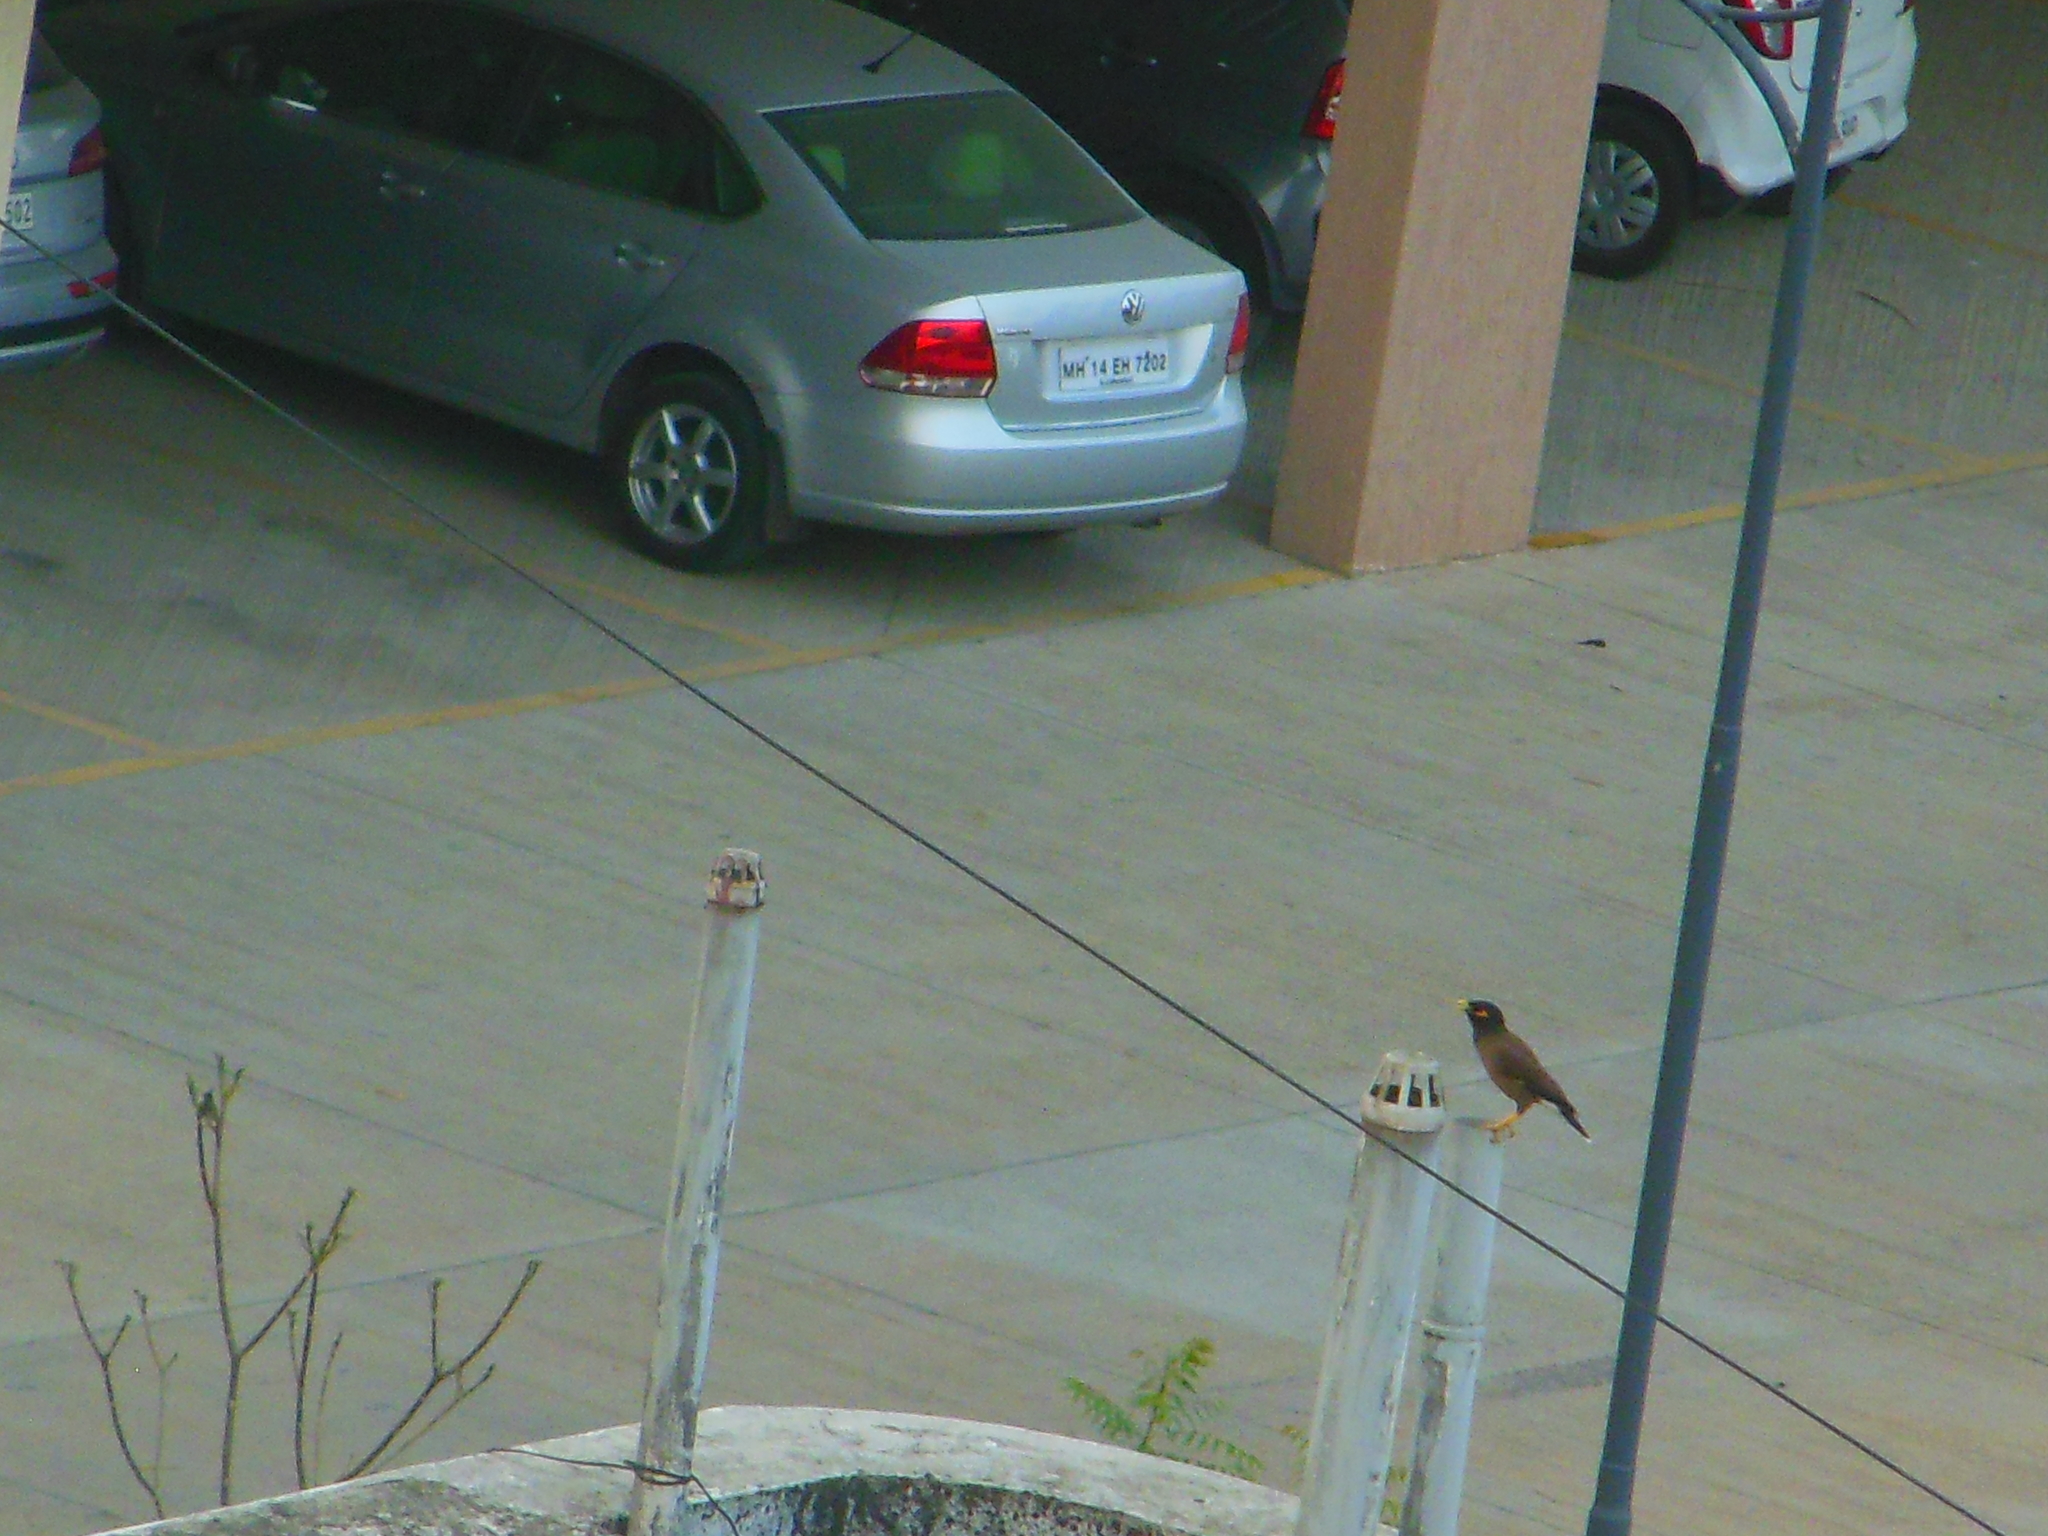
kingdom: Animalia
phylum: Chordata
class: Aves
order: Passeriformes
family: Sturnidae
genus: Acridotheres
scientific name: Acridotheres tristis
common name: Common myna
